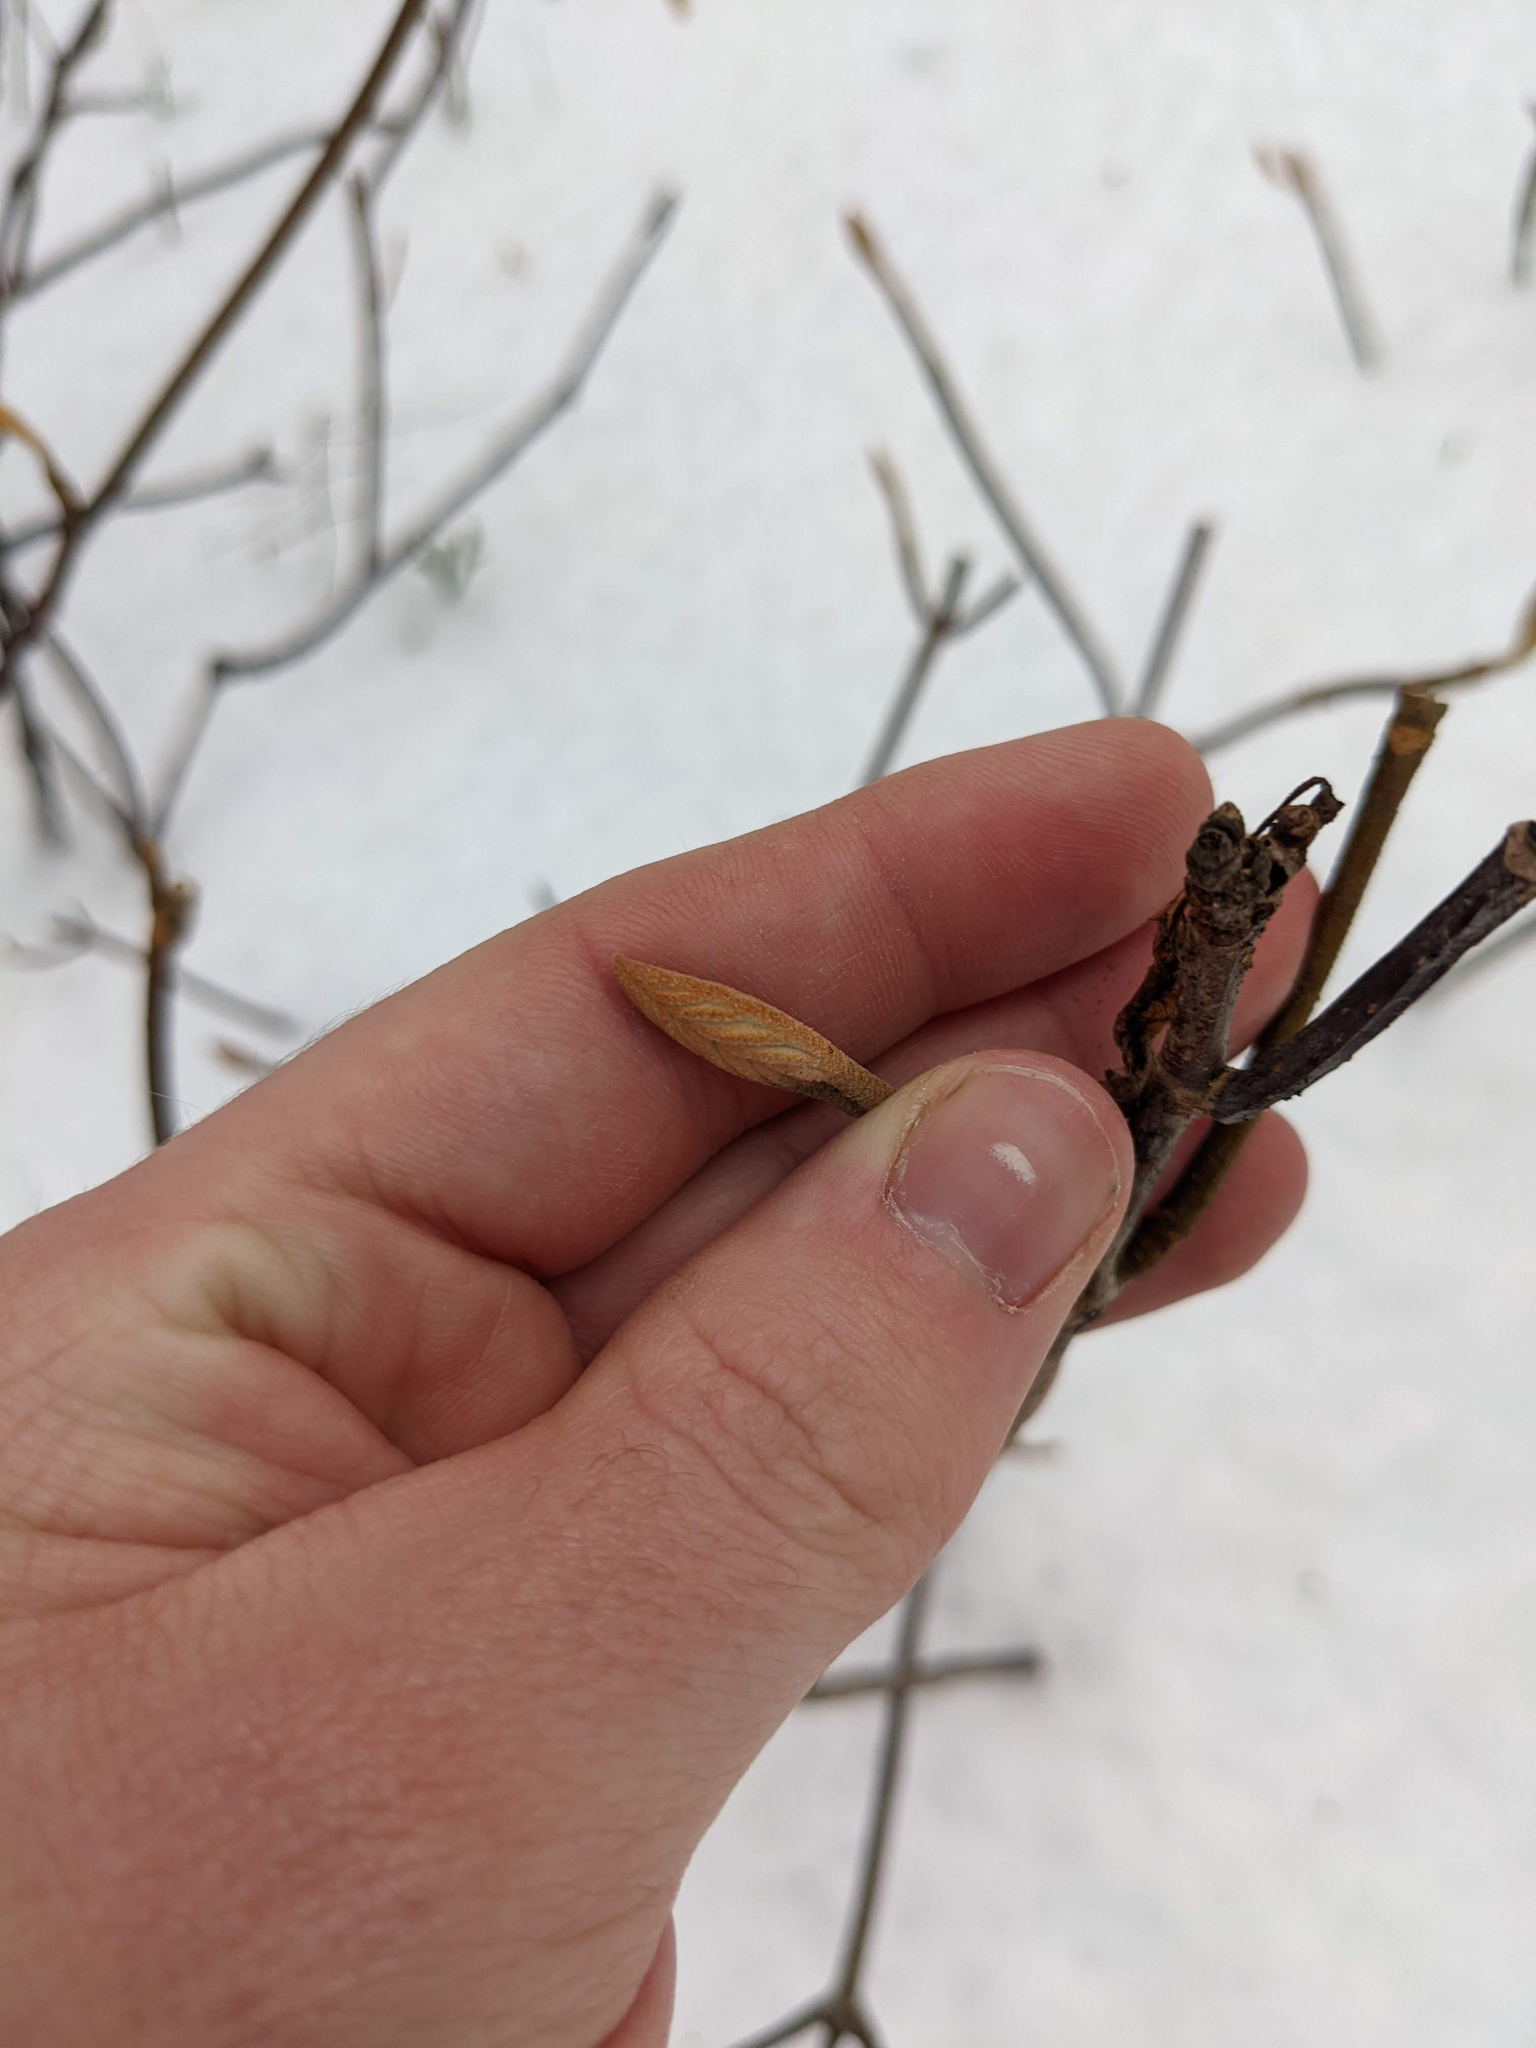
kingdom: Plantae
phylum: Tracheophyta
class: Magnoliopsida
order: Dipsacales
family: Viburnaceae
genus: Viburnum
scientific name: Viburnum lantanoides
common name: Hobblebush
